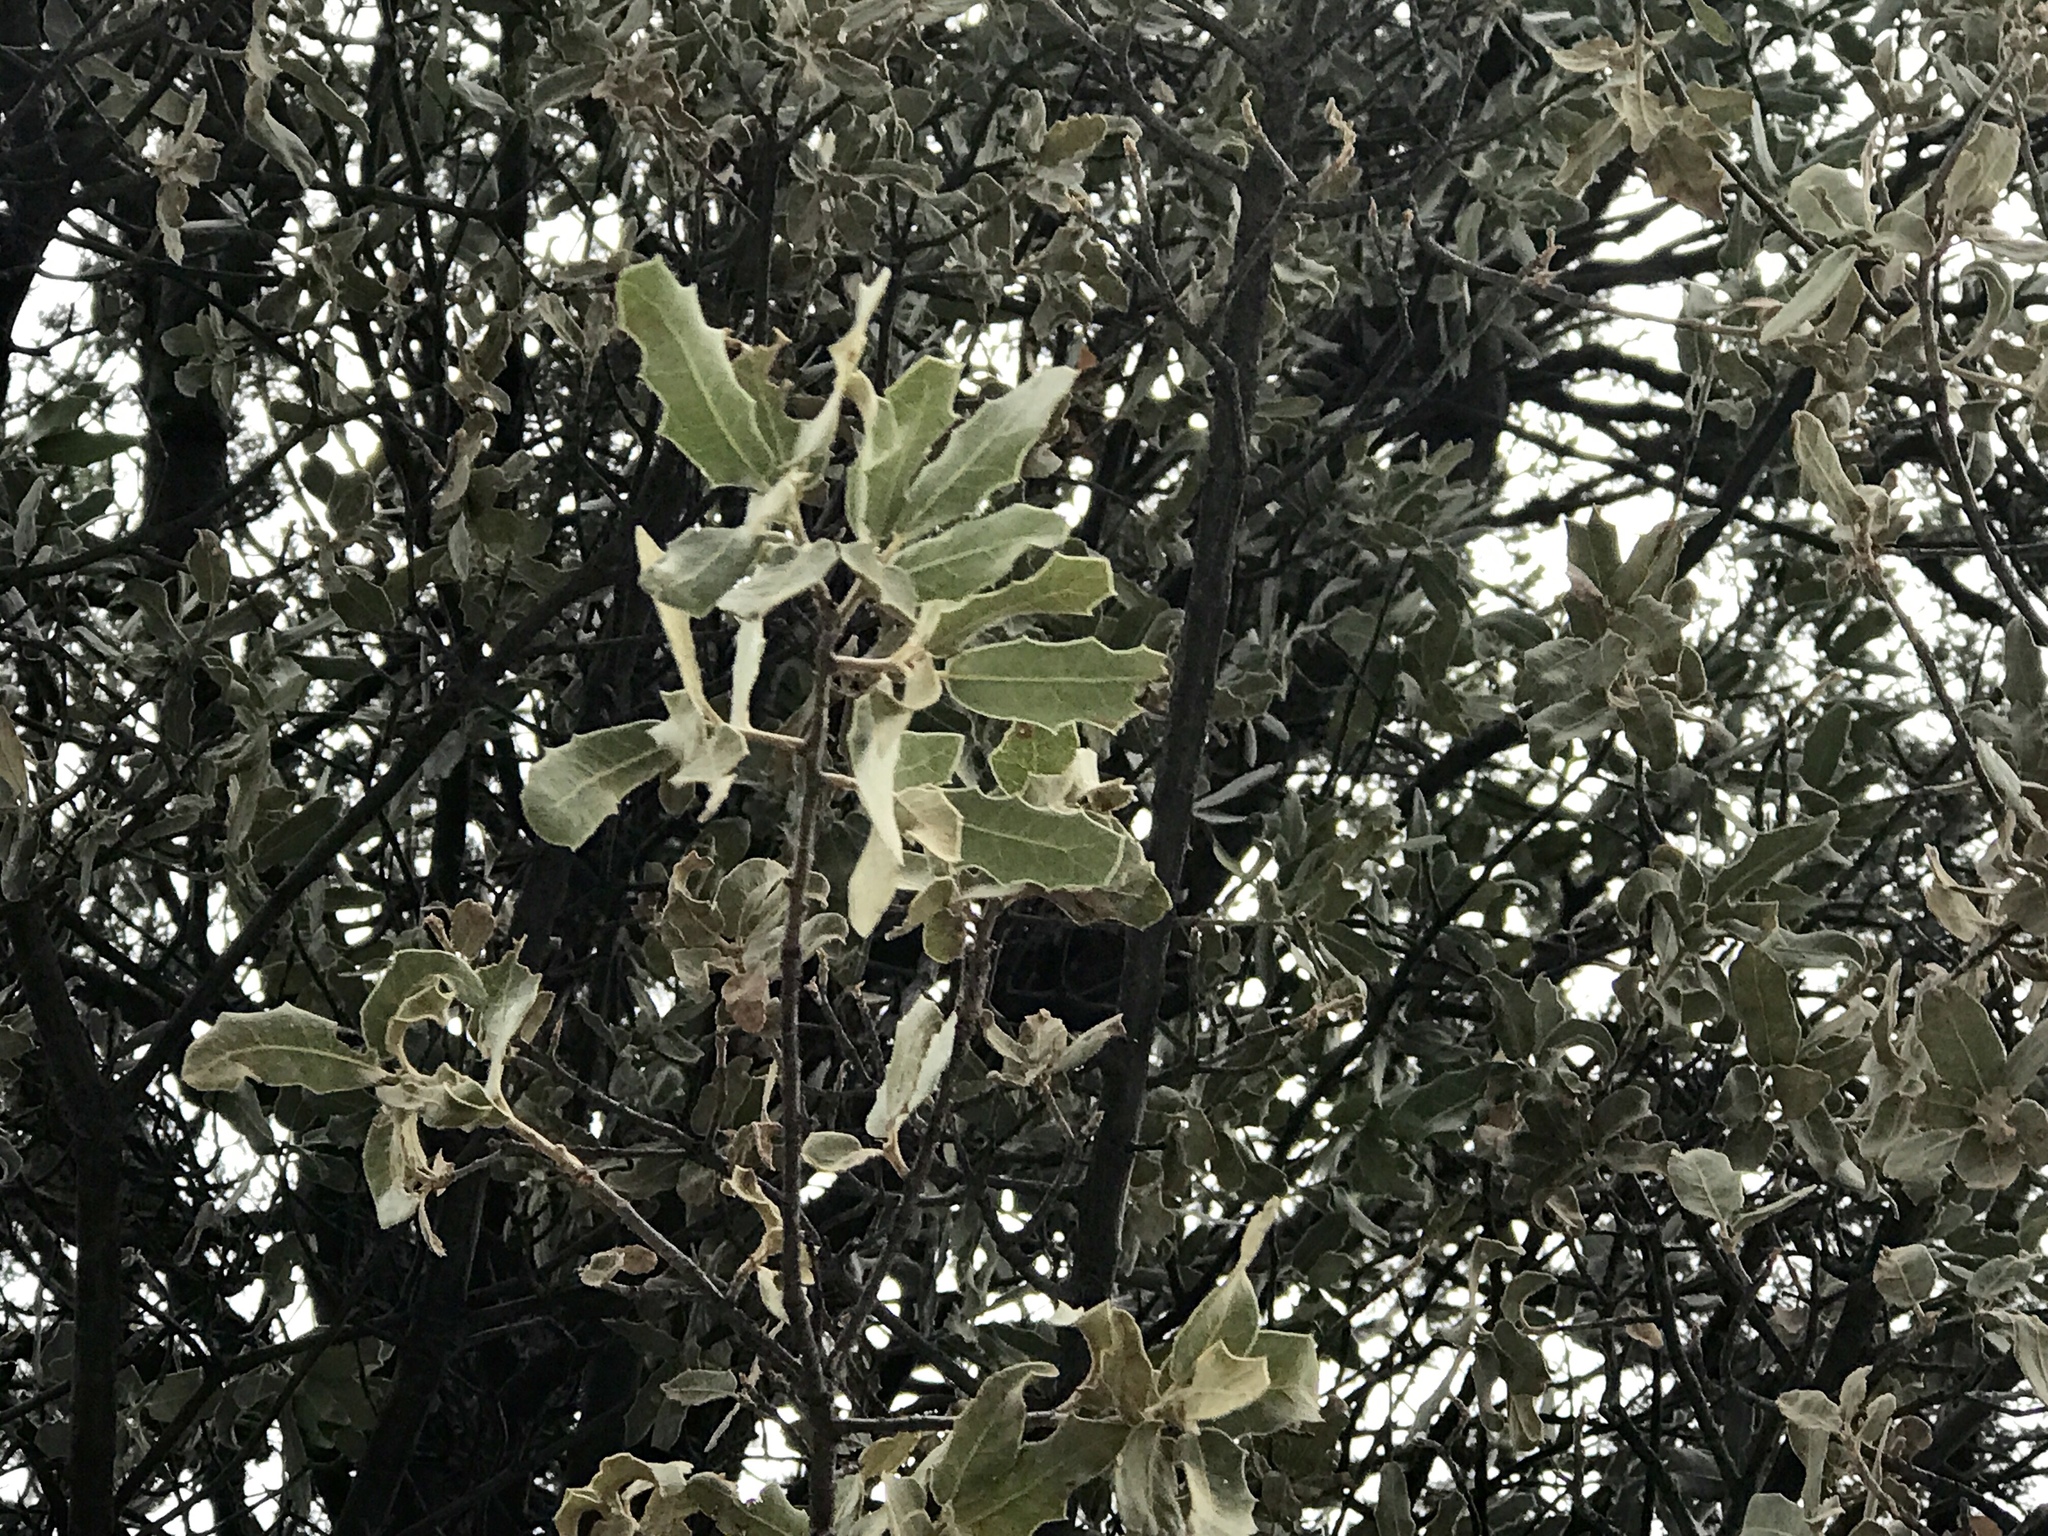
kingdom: Plantae
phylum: Tracheophyta
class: Magnoliopsida
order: Fagales
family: Fagaceae
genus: Quercus
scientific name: Quercus emoryi
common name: Emory oak
